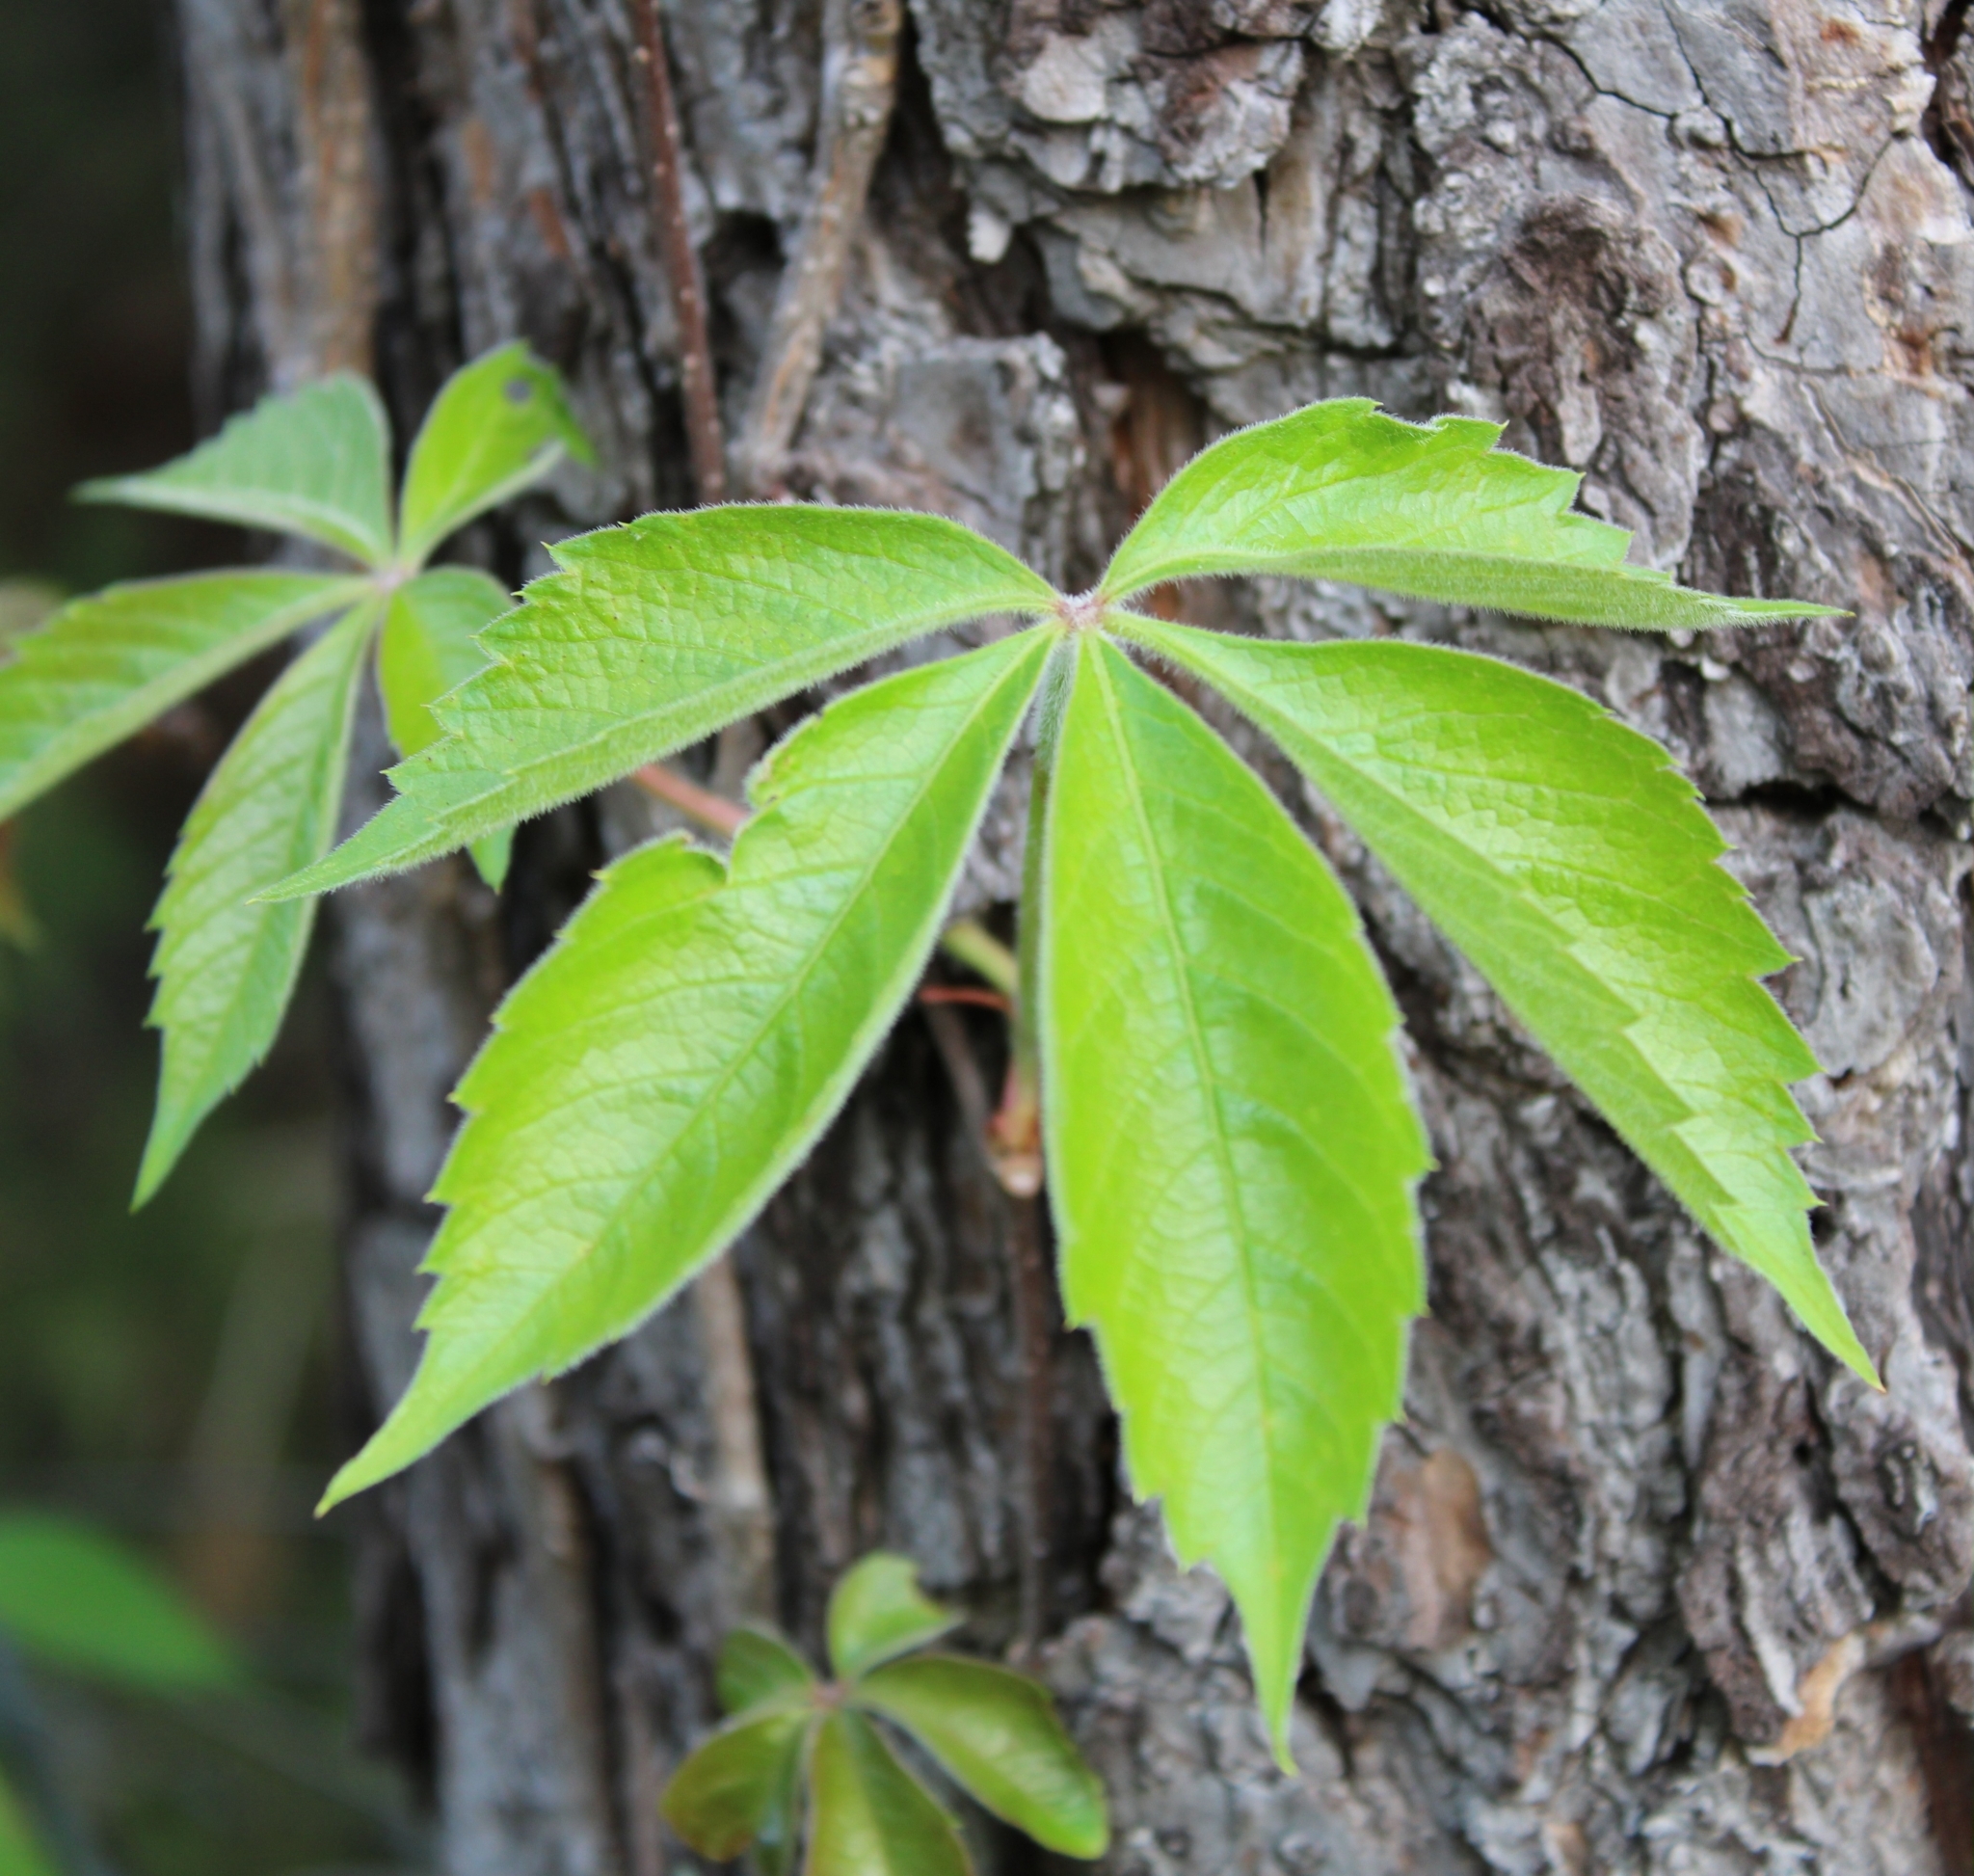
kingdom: Plantae
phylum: Tracheophyta
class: Magnoliopsida
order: Vitales
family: Vitaceae
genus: Parthenocissus
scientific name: Parthenocissus quinquefolia
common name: Virginia-creeper
